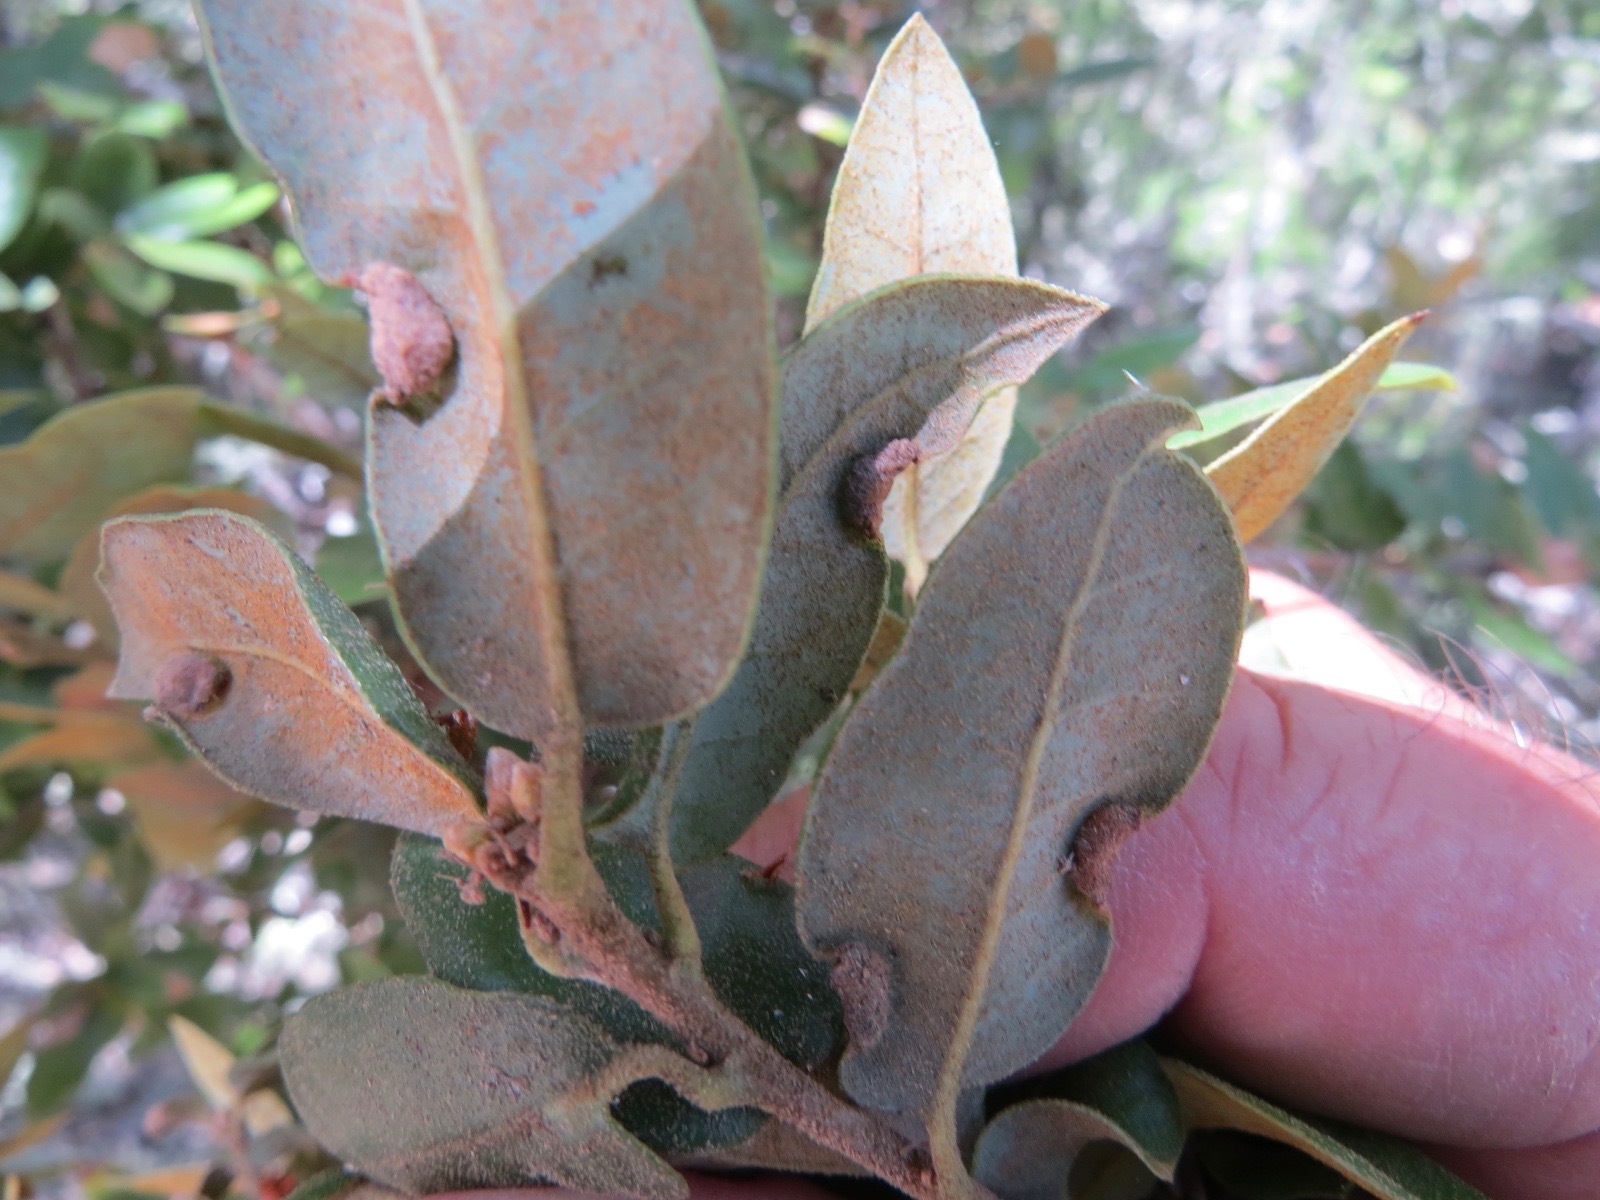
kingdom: Animalia
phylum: Arthropoda
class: Insecta
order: Diptera
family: Cecidomyiidae
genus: Dasineura
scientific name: Dasineura silvestrii
